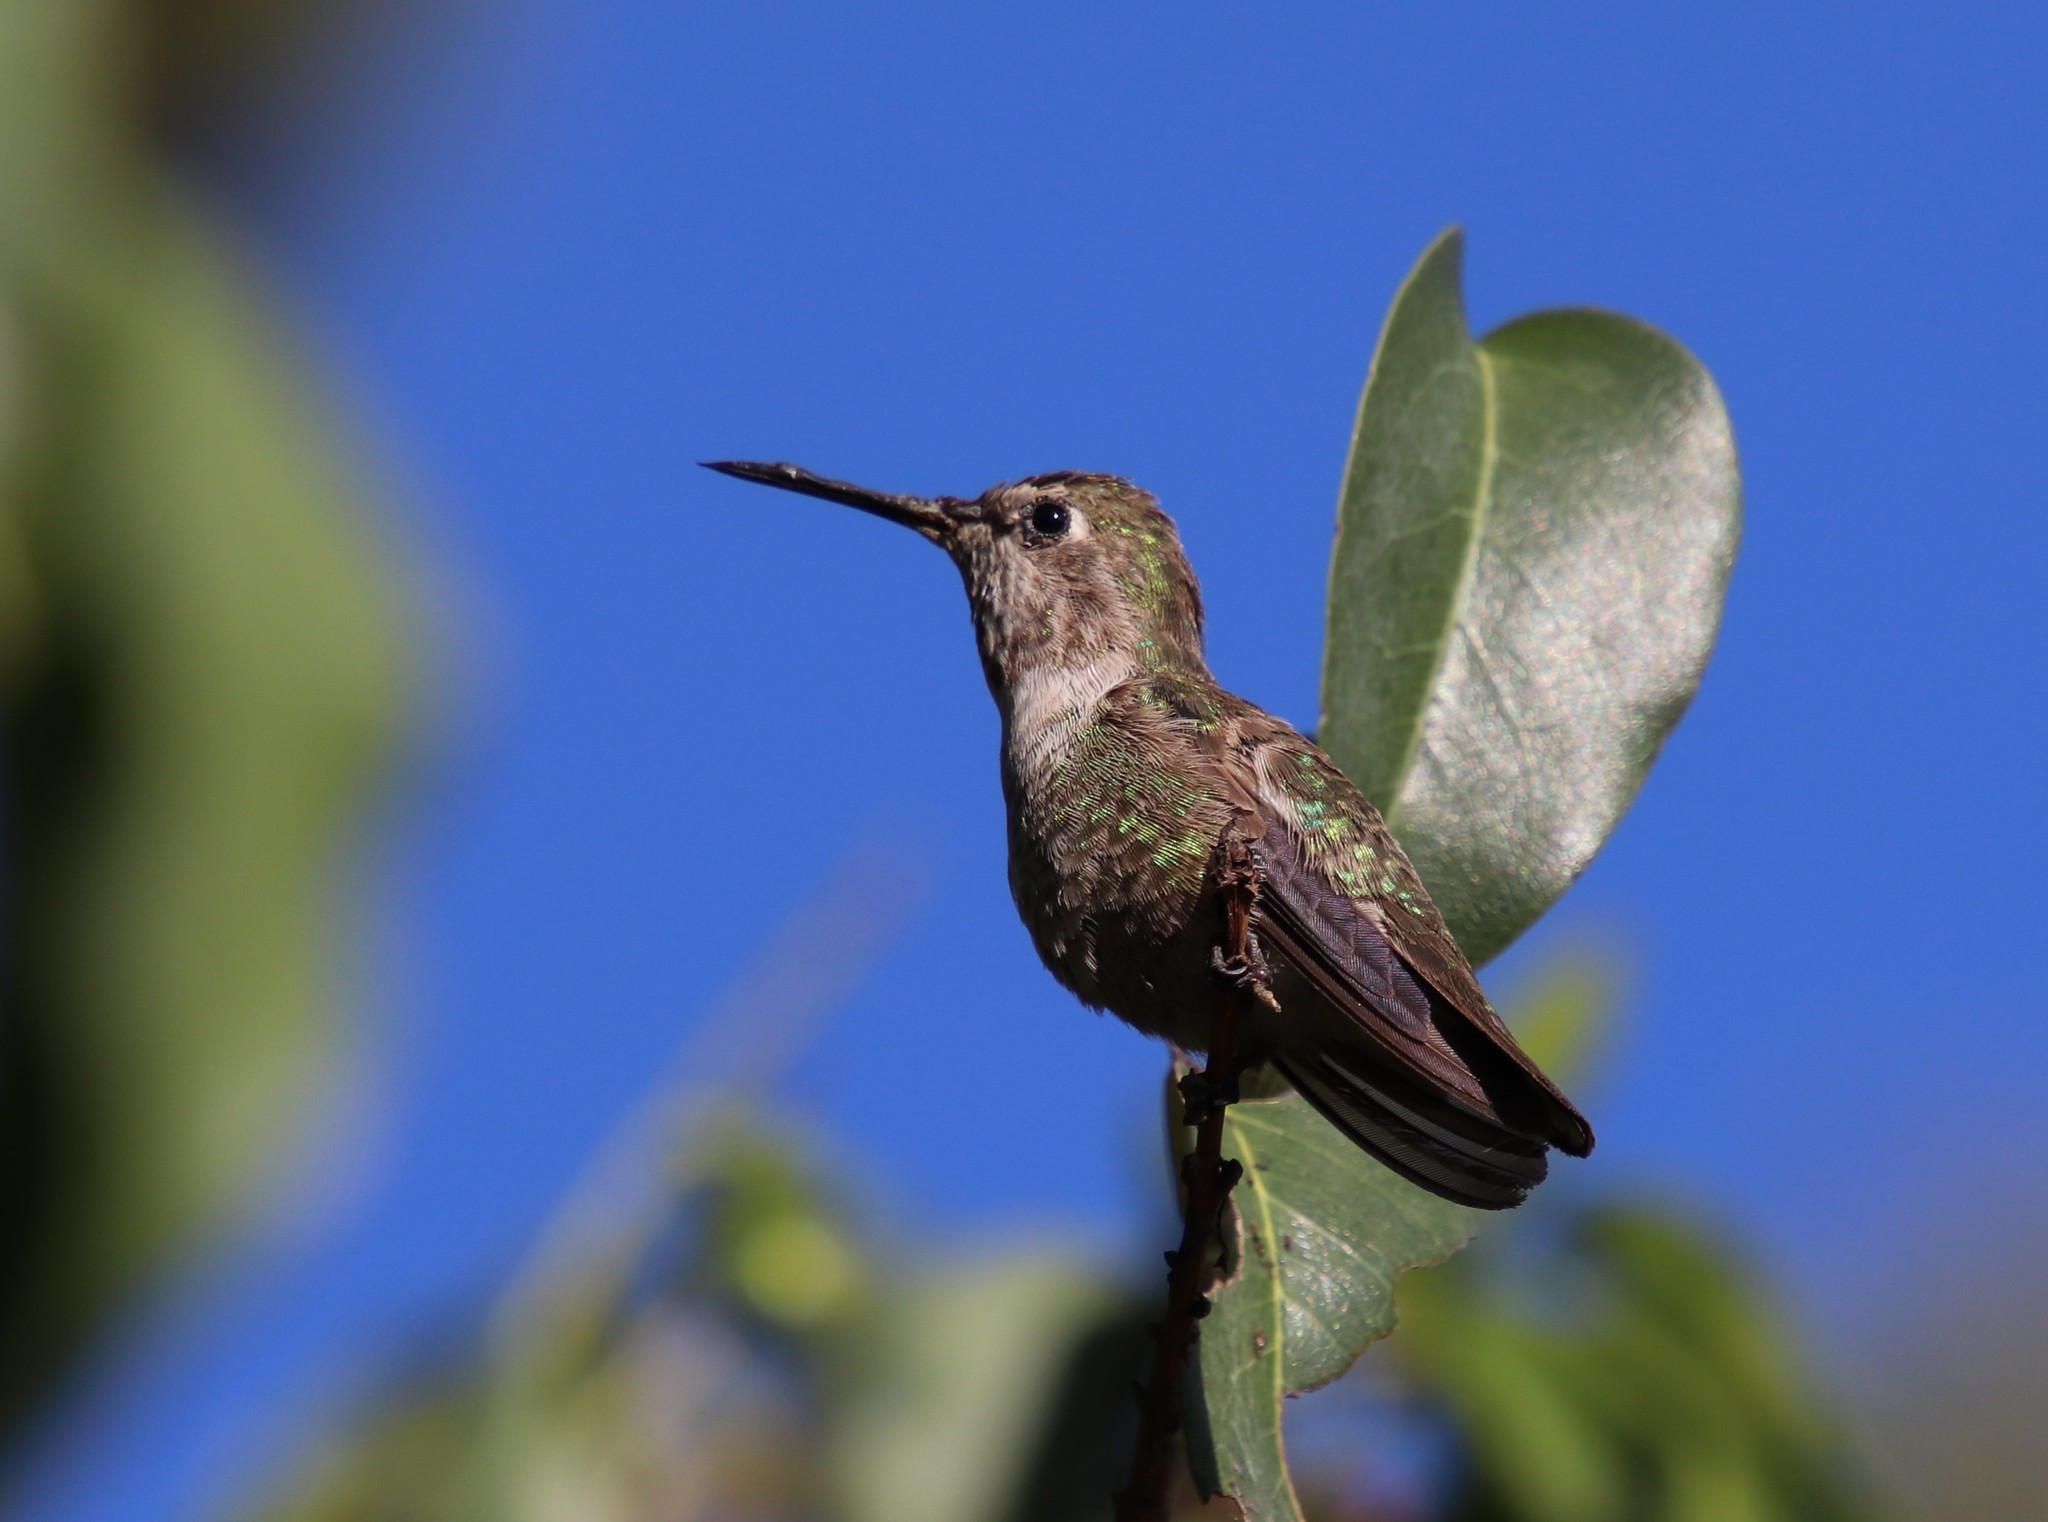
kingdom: Animalia
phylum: Chordata
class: Aves
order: Apodiformes
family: Trochilidae
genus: Calypte
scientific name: Calypte anna
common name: Anna's hummingbird
